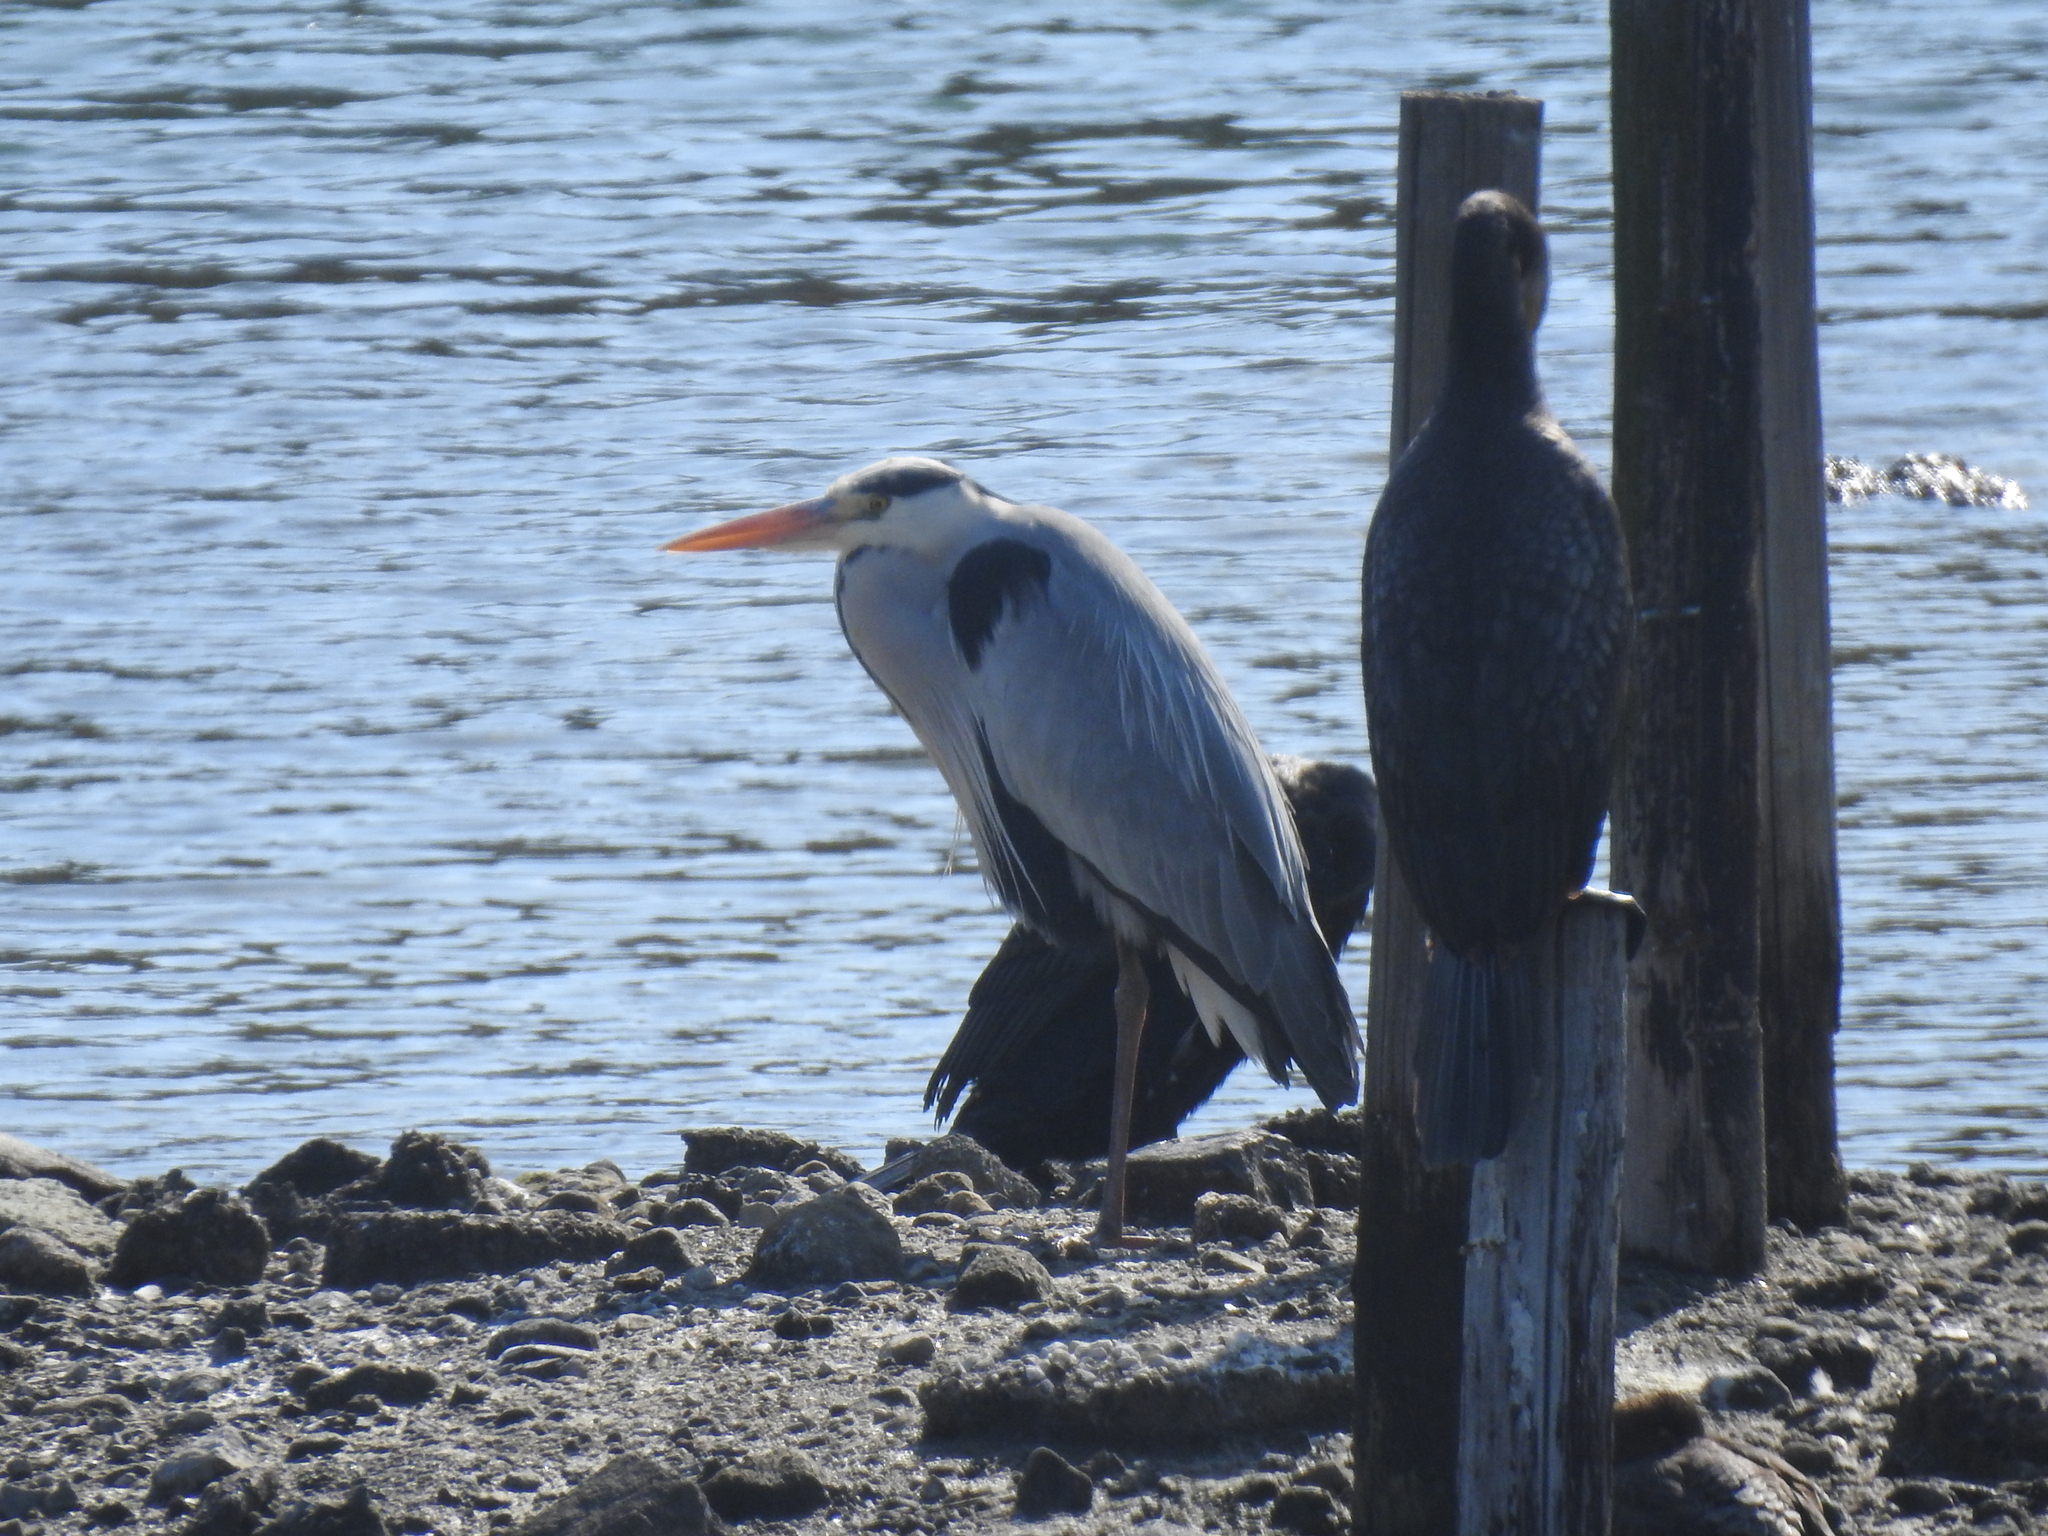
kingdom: Animalia
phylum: Chordata
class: Aves
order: Pelecaniformes
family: Ardeidae
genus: Ardea
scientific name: Ardea cinerea
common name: Grey heron
